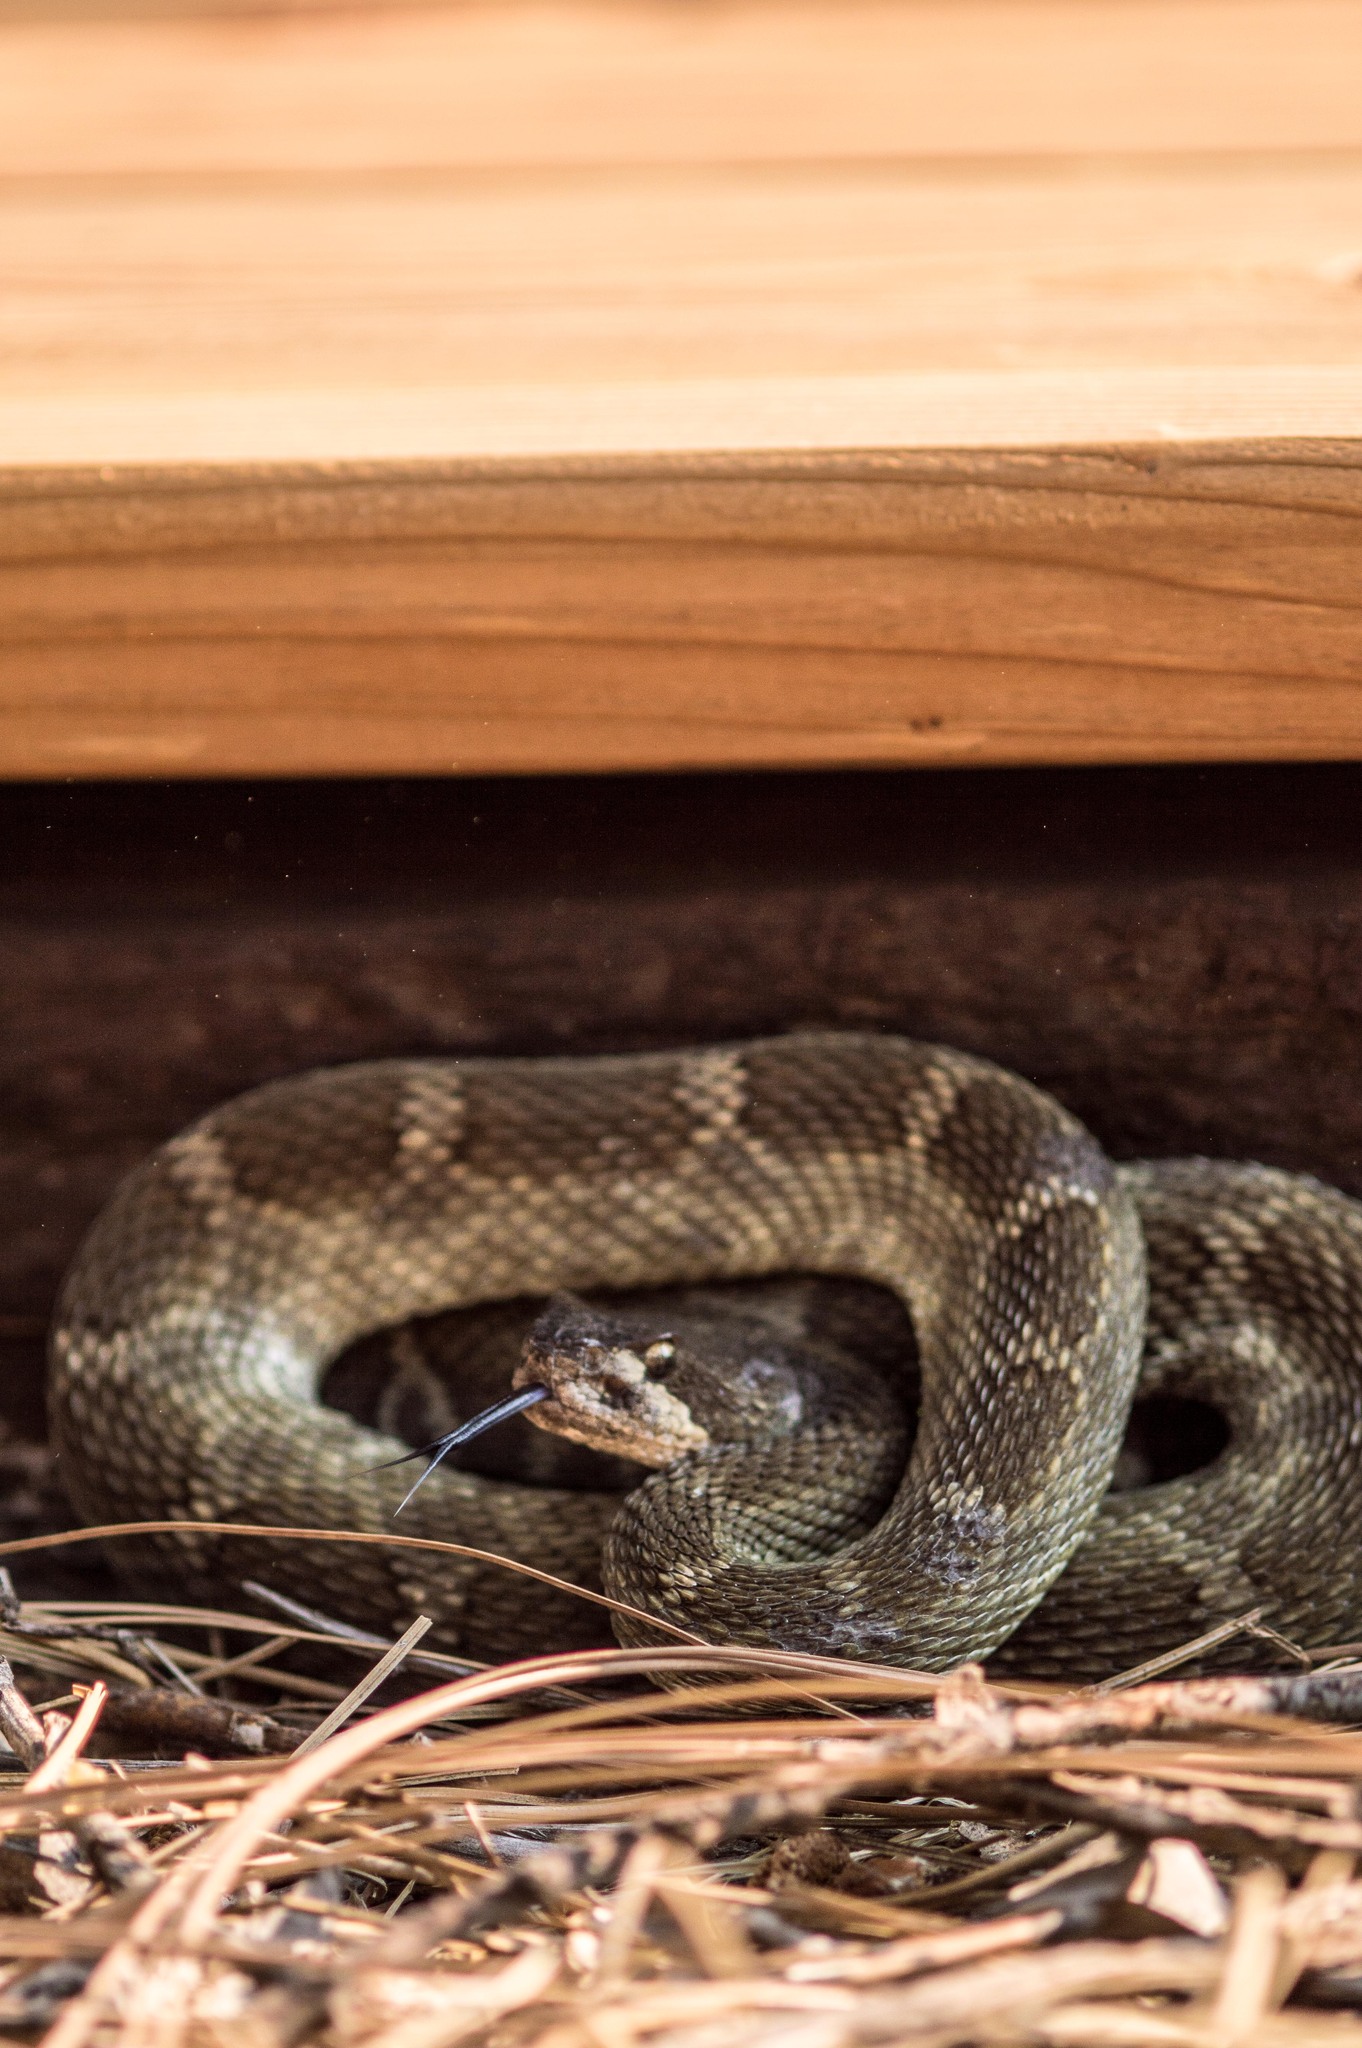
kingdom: Animalia
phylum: Chordata
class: Squamata
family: Viperidae
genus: Crotalus
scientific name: Crotalus oreganus
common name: Abyssus
